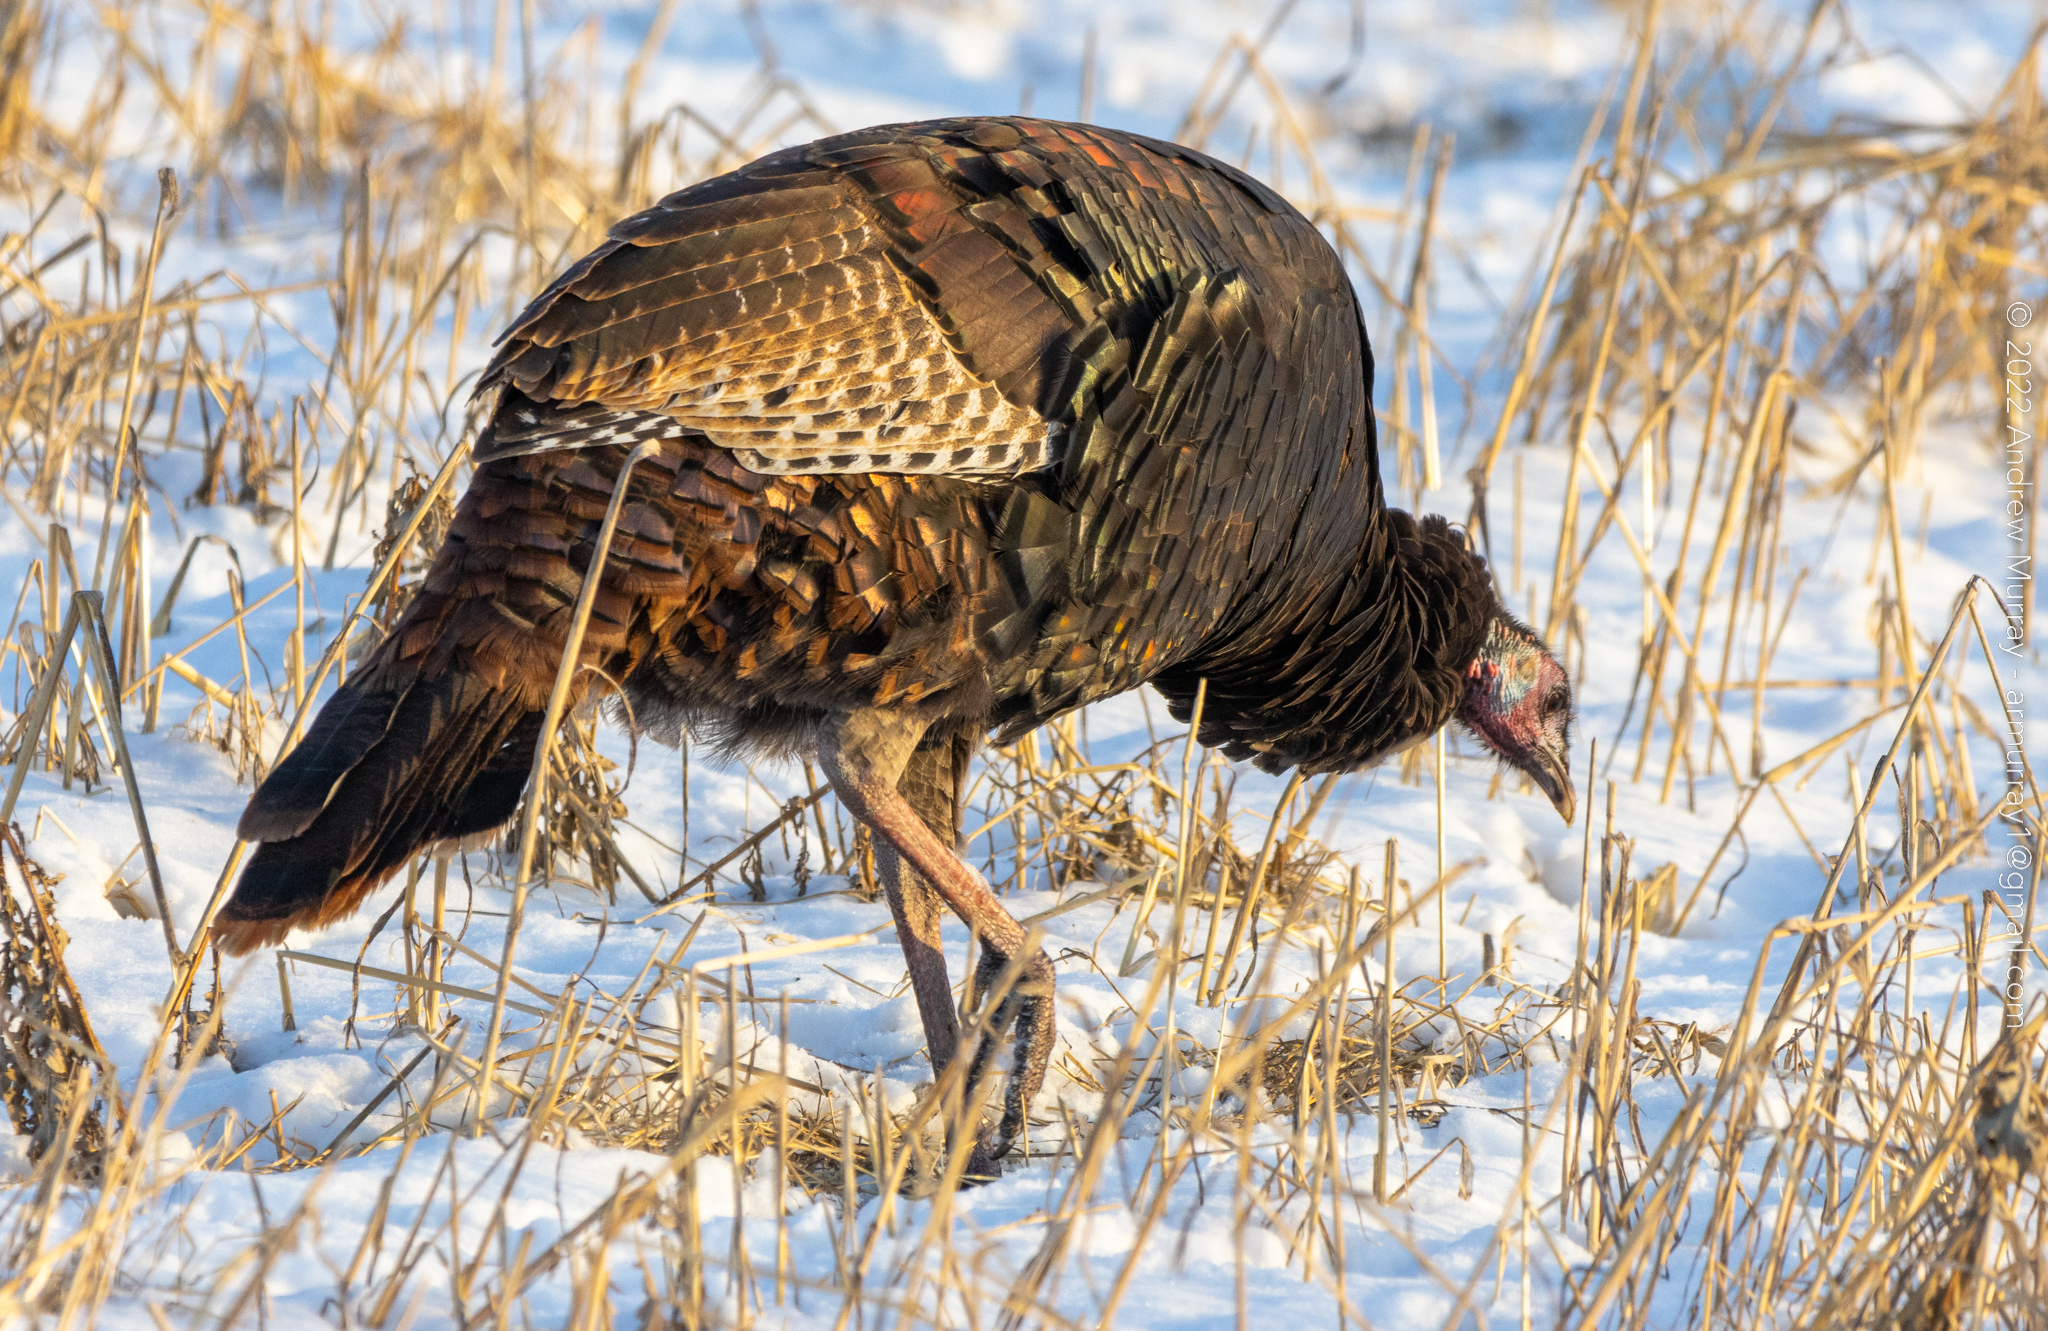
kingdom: Animalia
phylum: Chordata
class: Aves
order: Galliformes
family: Phasianidae
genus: Meleagris
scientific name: Meleagris gallopavo
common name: Wild turkey
